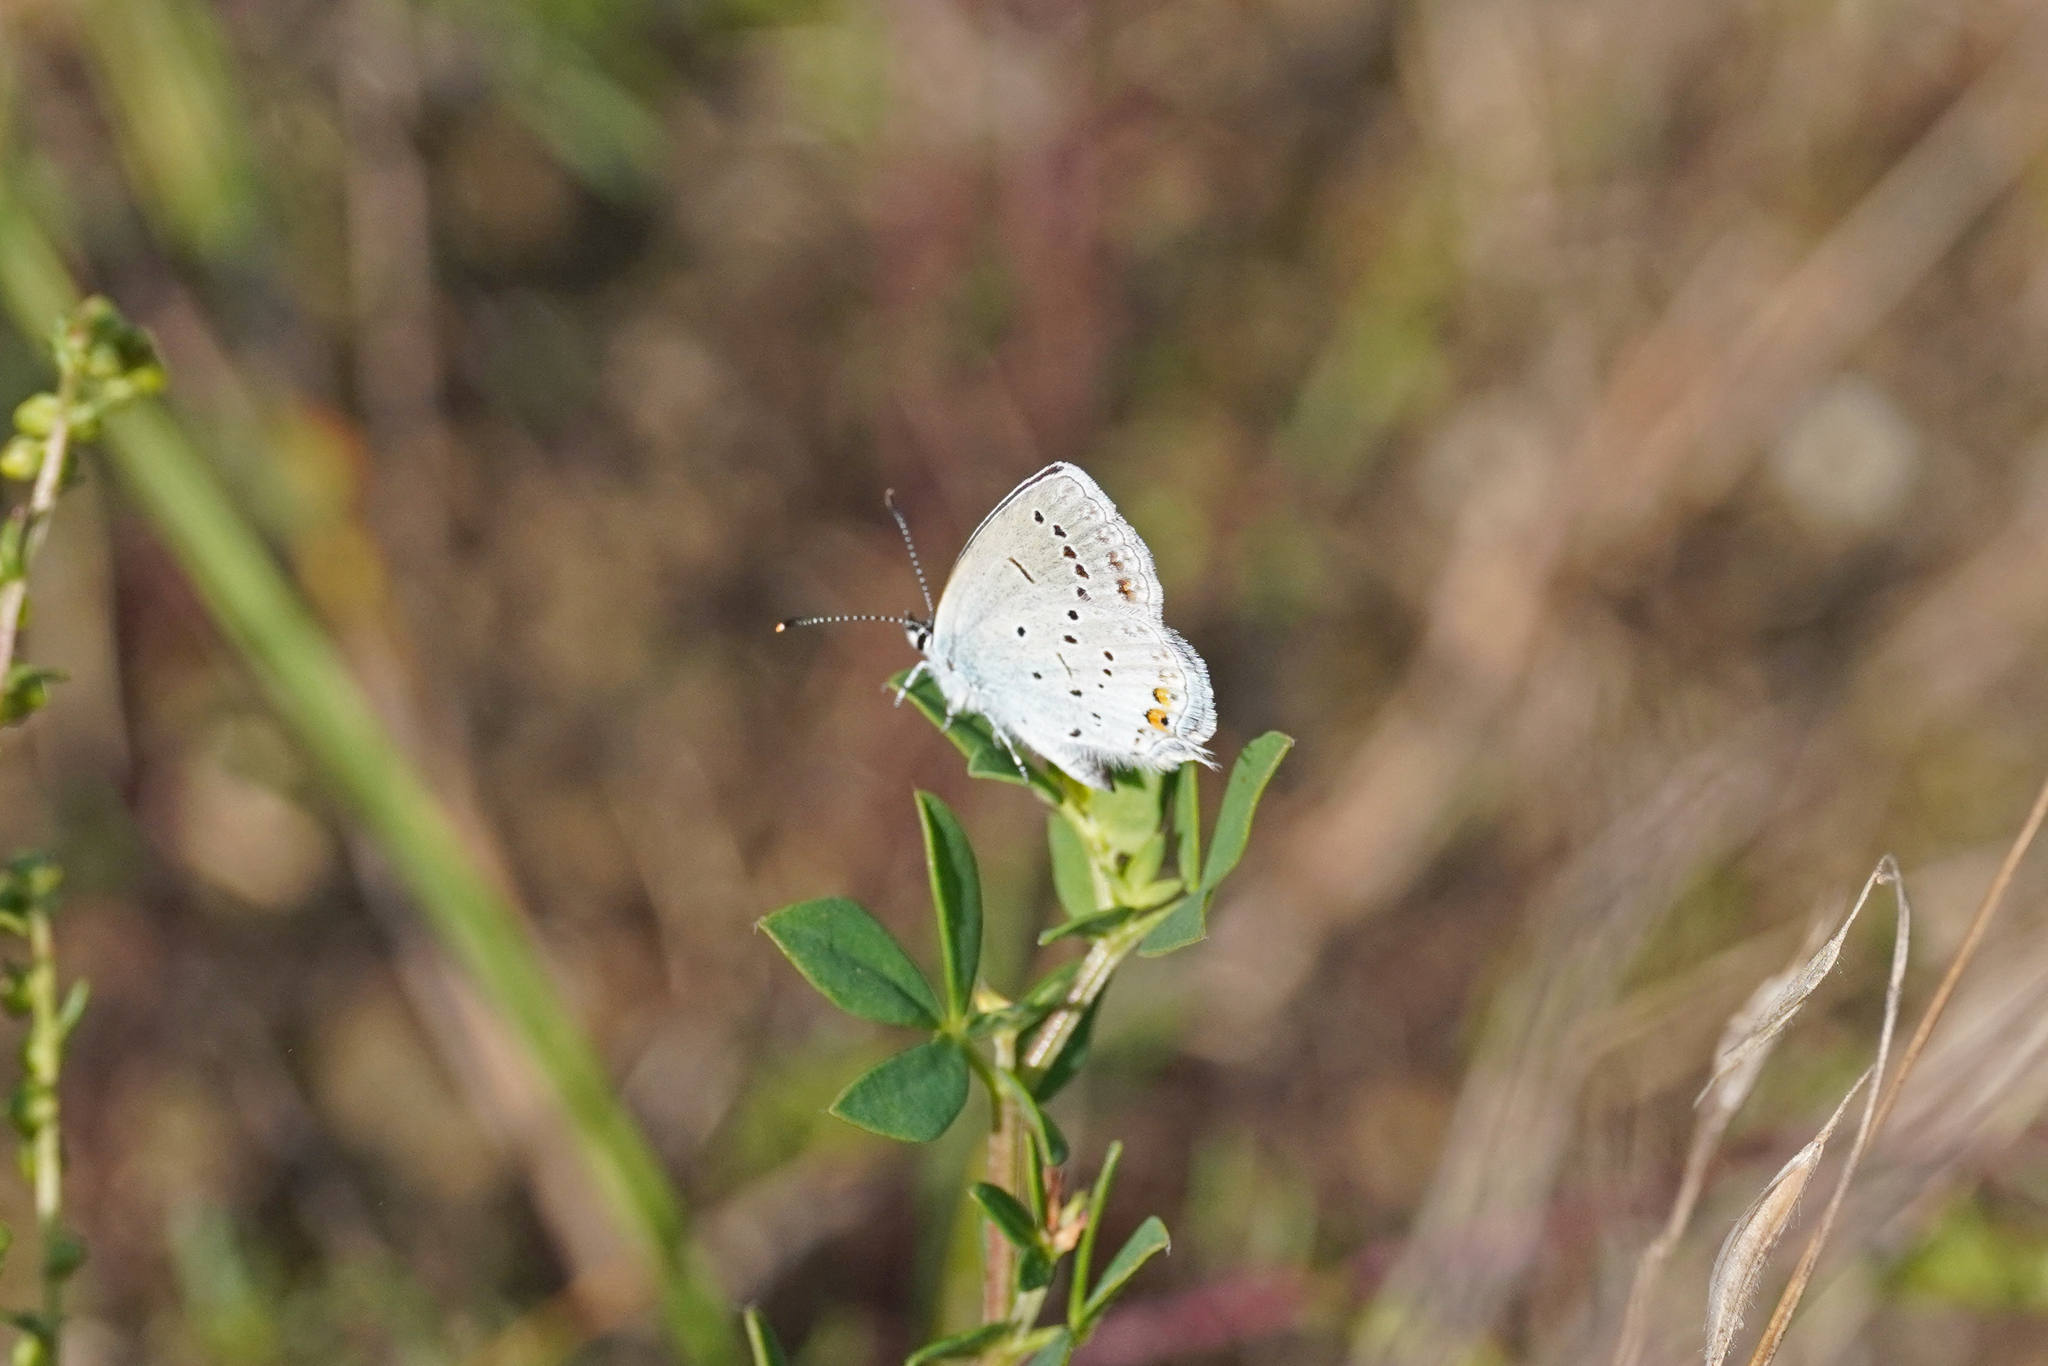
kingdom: Animalia
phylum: Arthropoda
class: Insecta
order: Lepidoptera
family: Lycaenidae
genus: Elkalyce
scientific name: Elkalyce argiades
